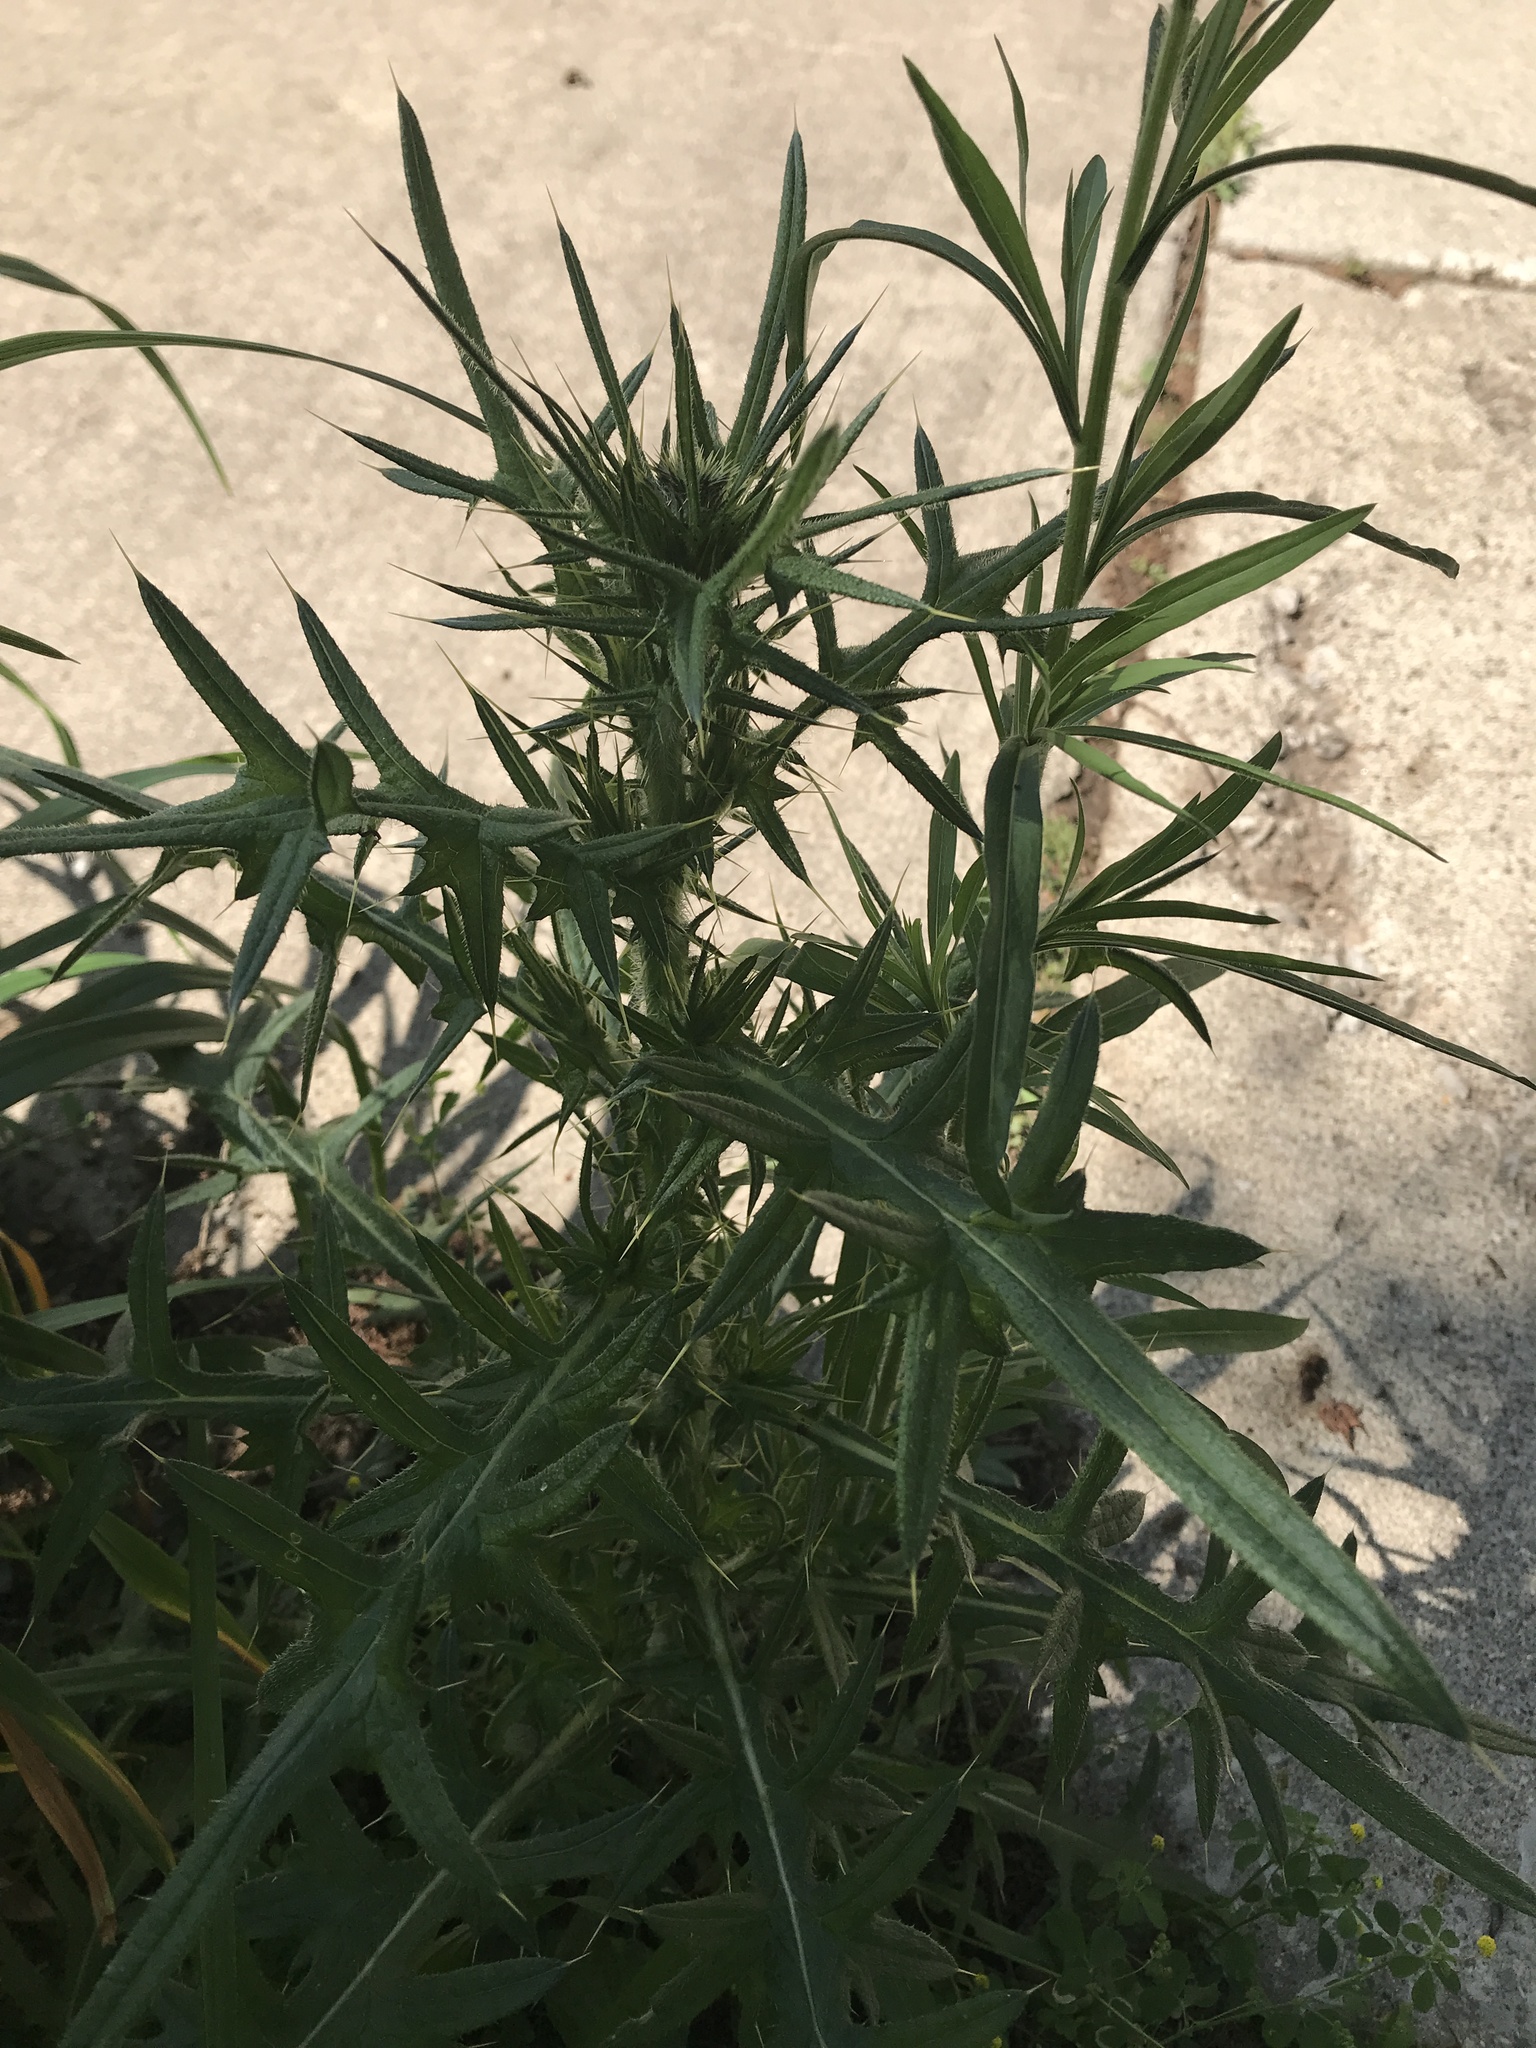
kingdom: Plantae
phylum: Tracheophyta
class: Magnoliopsida
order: Asterales
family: Asteraceae
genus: Cirsium
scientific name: Cirsium vulgare
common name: Bull thistle
